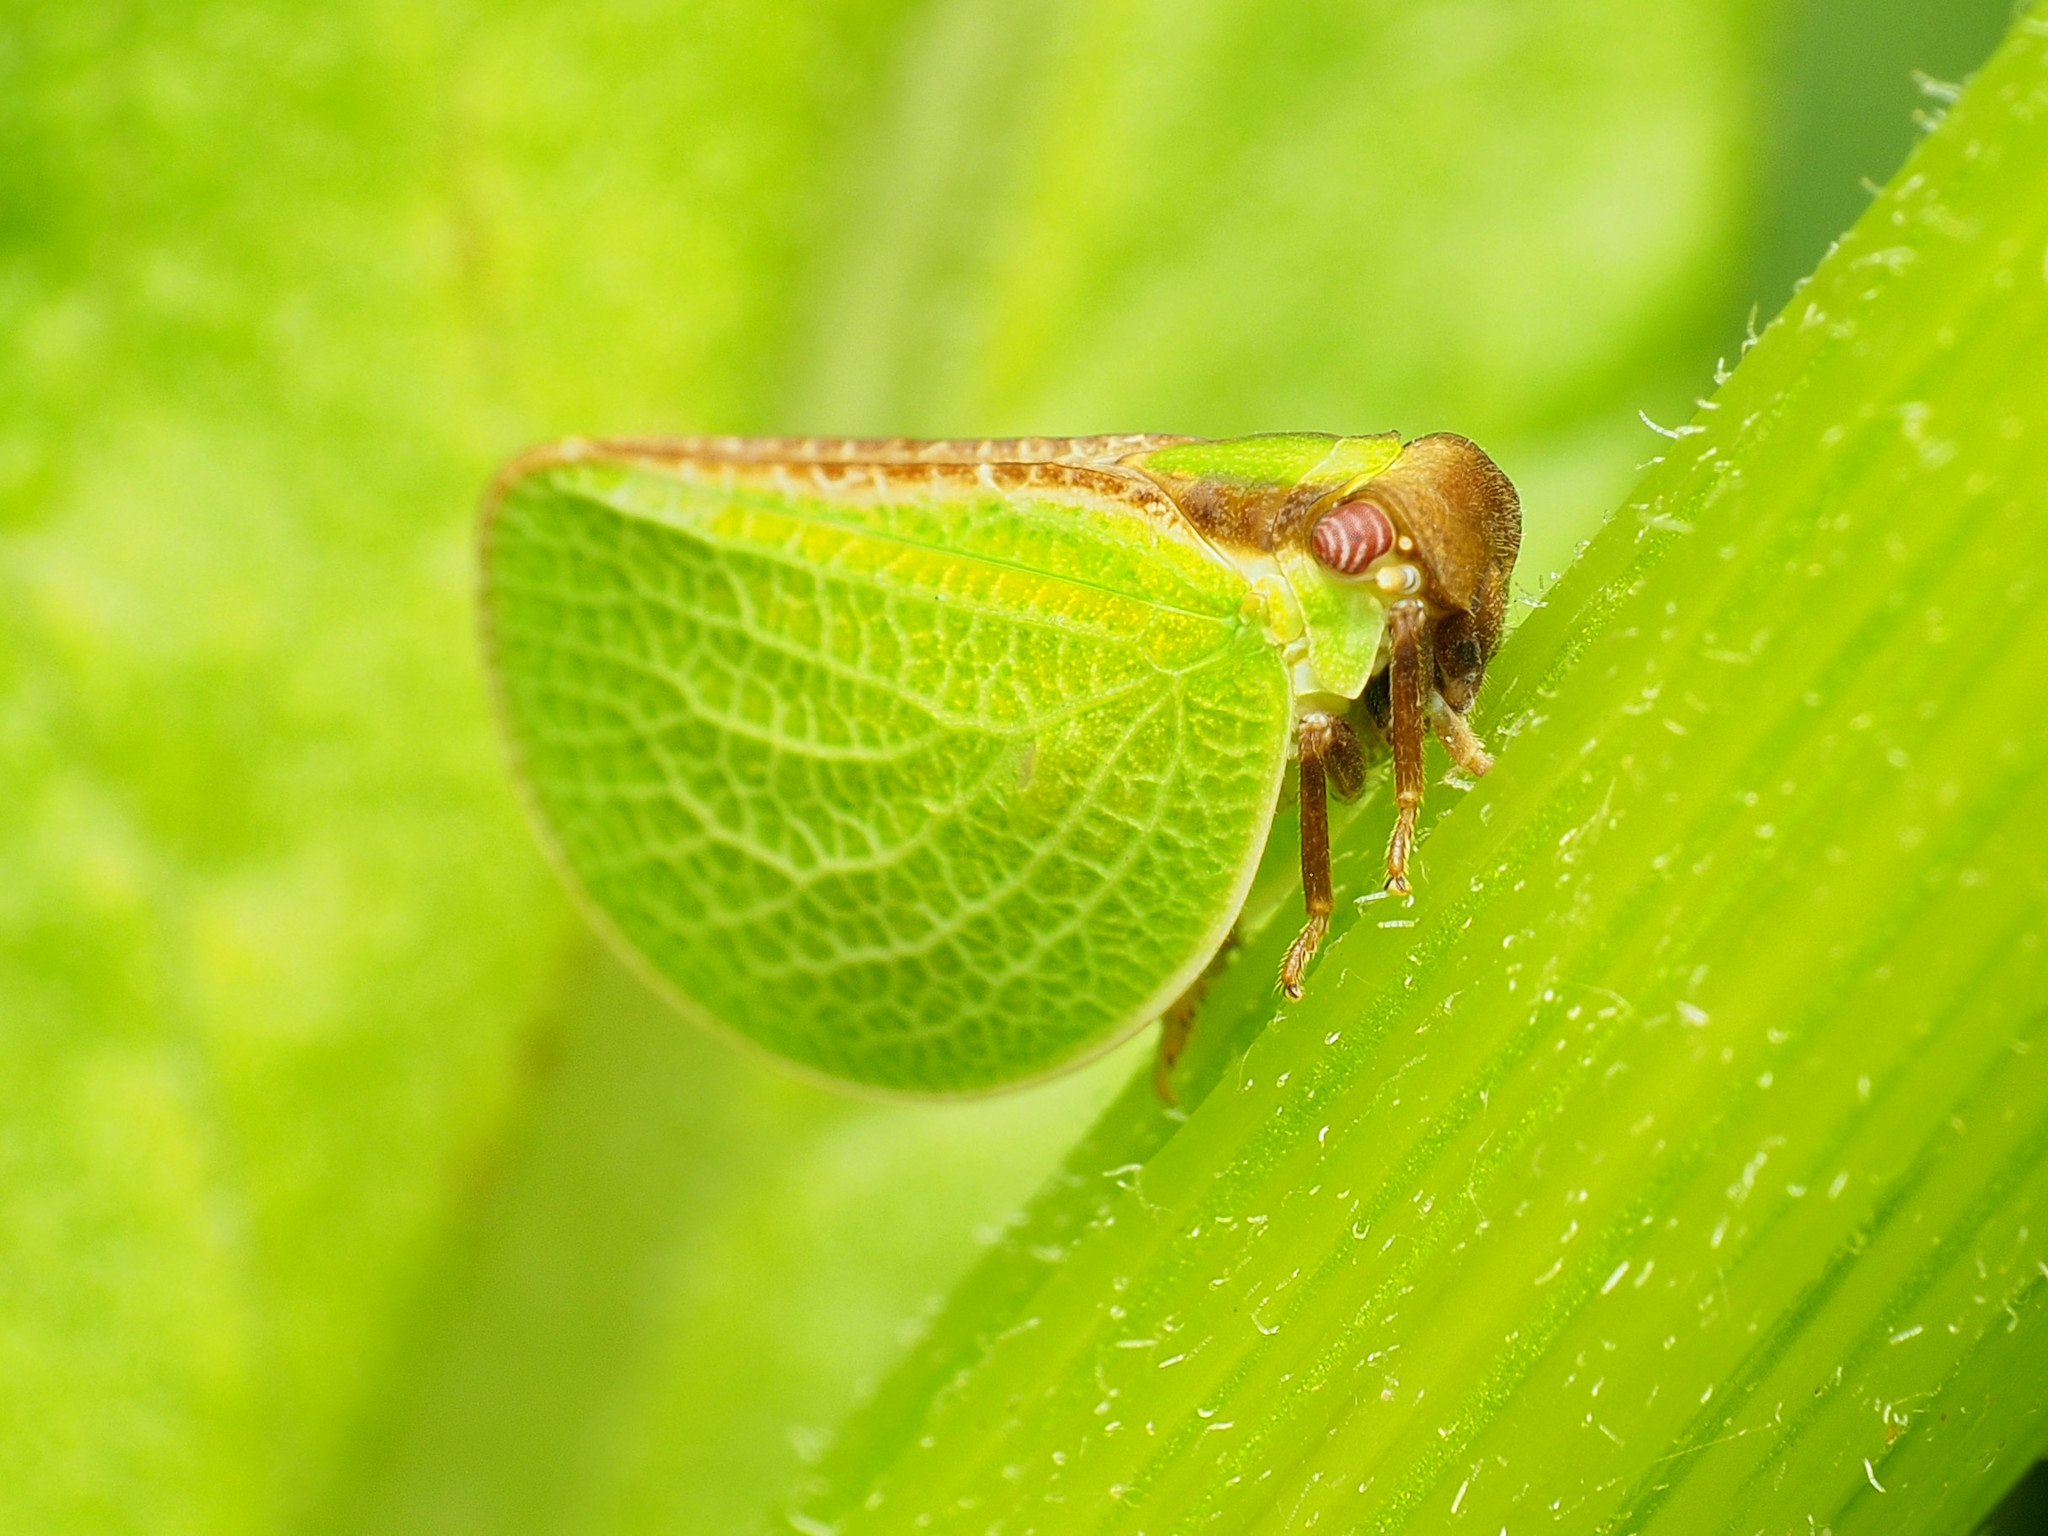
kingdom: Animalia
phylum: Arthropoda
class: Insecta
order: Hemiptera
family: Acanaloniidae
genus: Acanalonia
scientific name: Acanalonia bivittata
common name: Two-striped planthopper
